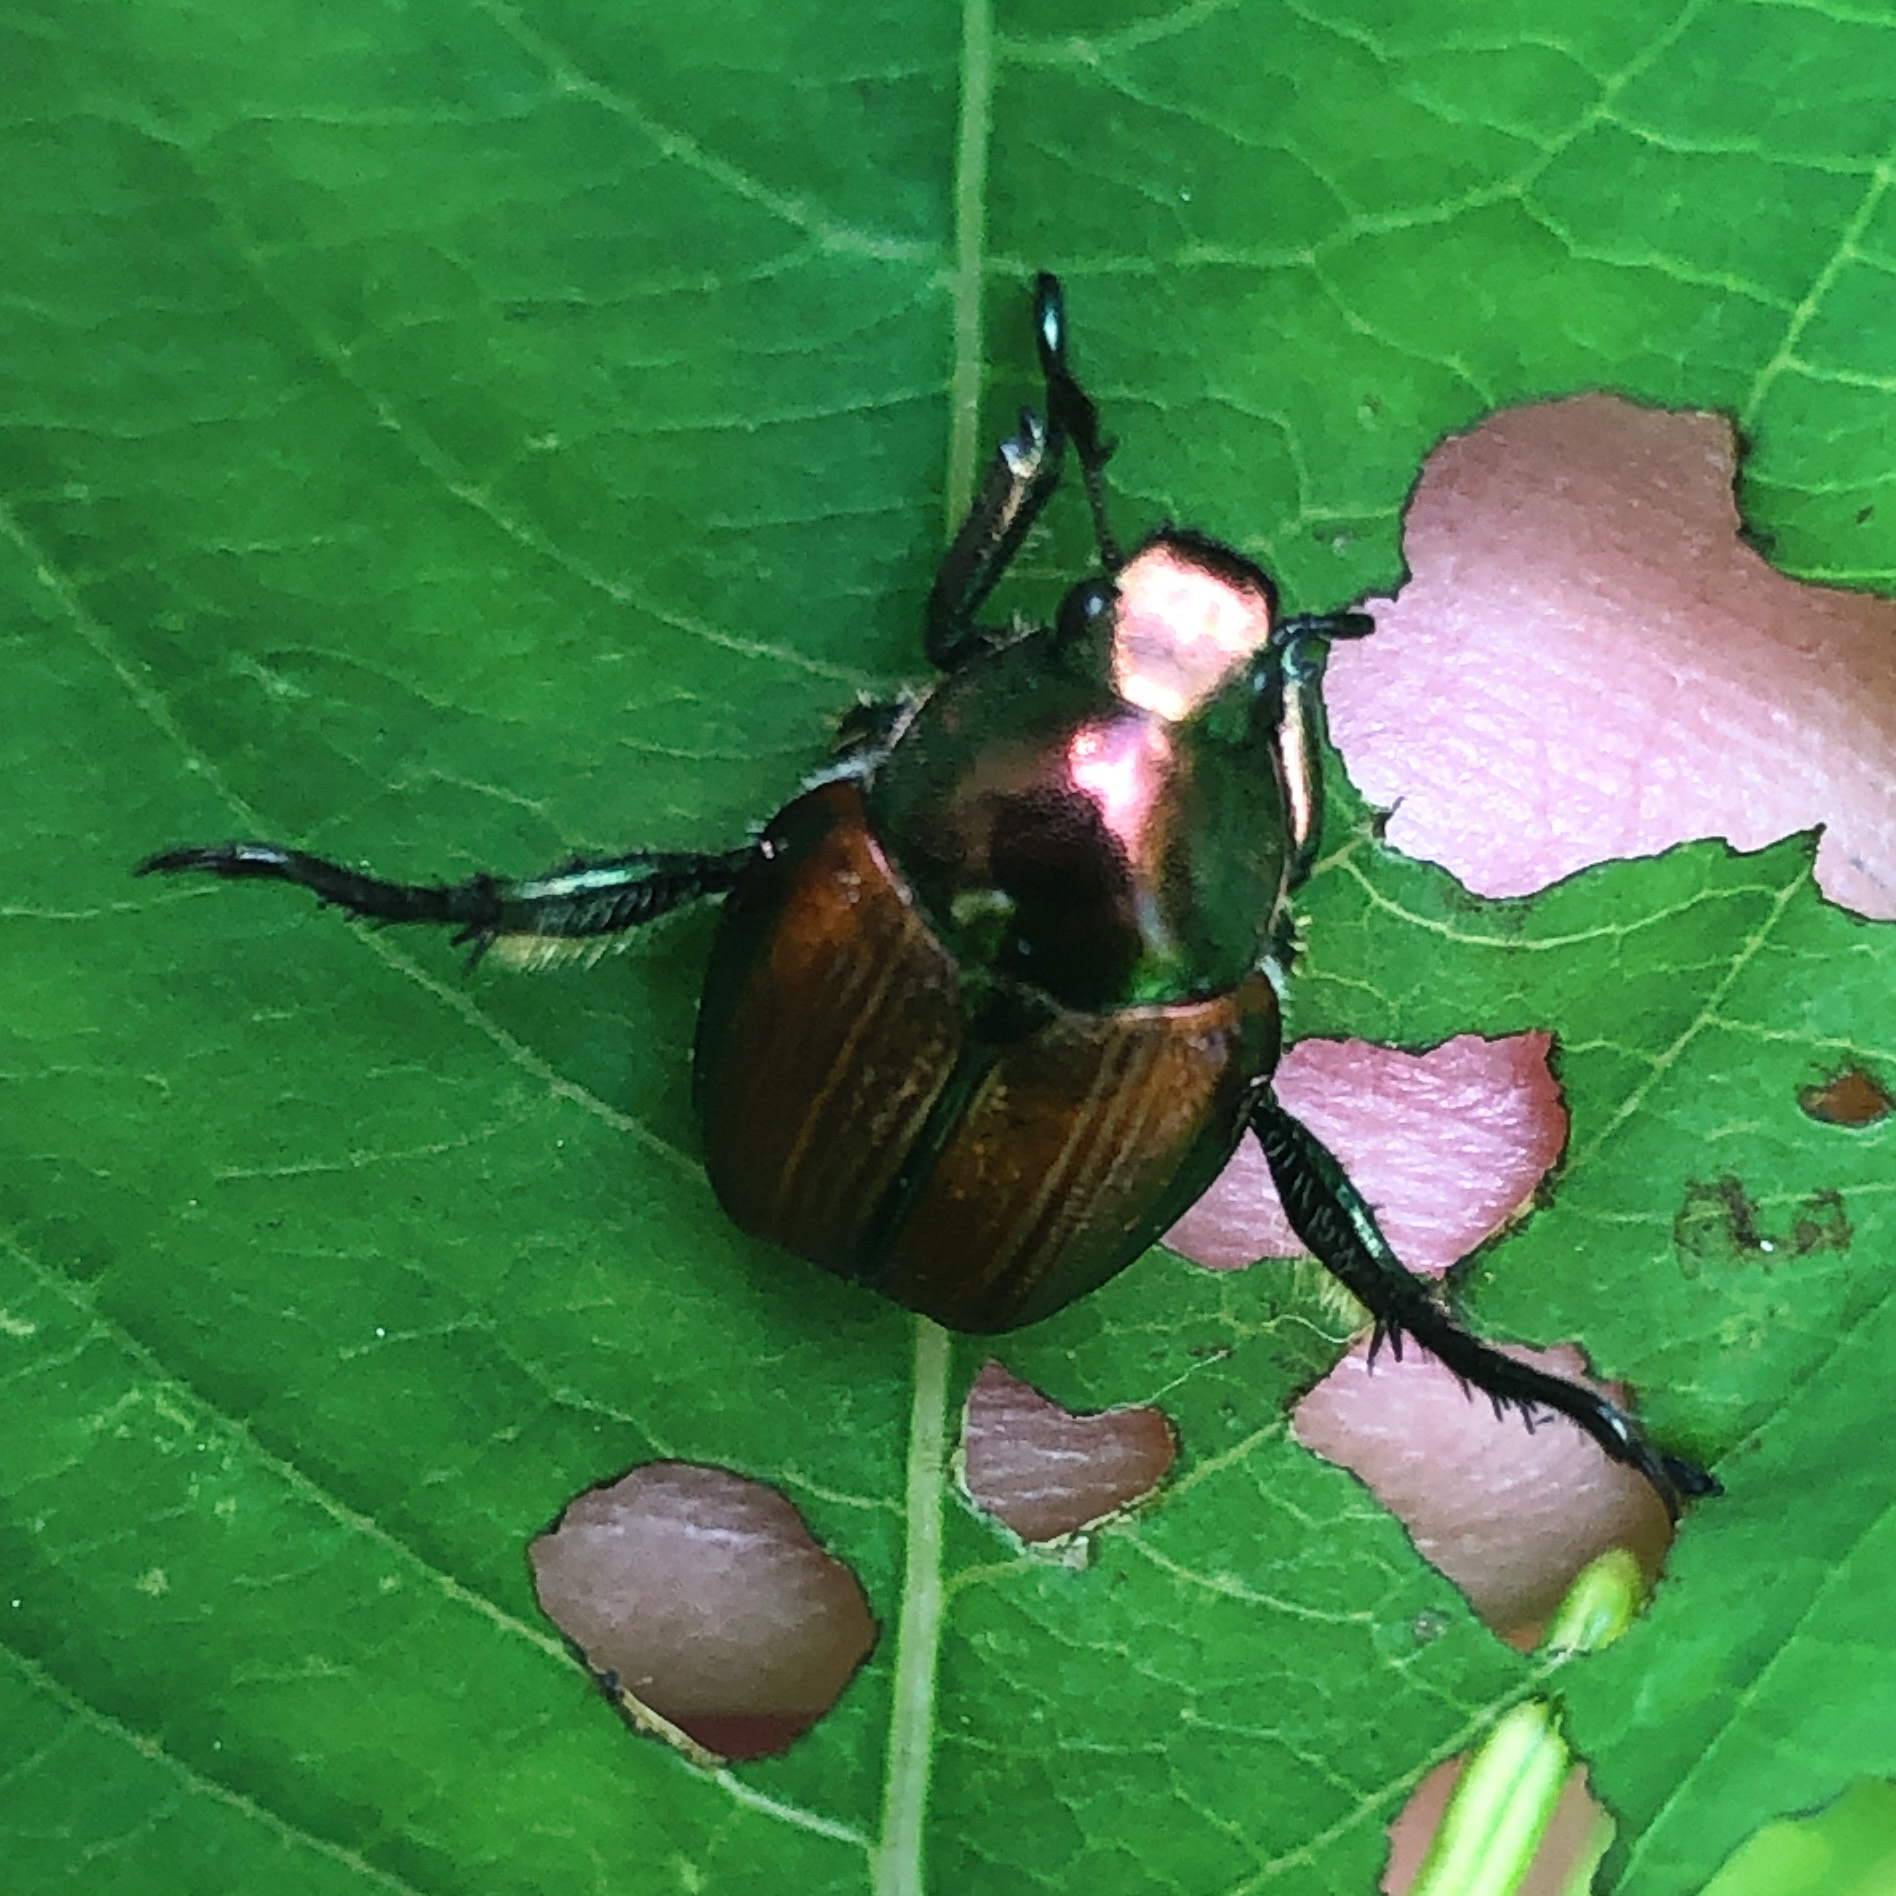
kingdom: Animalia
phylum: Arthropoda
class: Insecta
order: Coleoptera
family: Scarabaeidae
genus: Popillia
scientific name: Popillia japonica
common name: Japanese beetle
